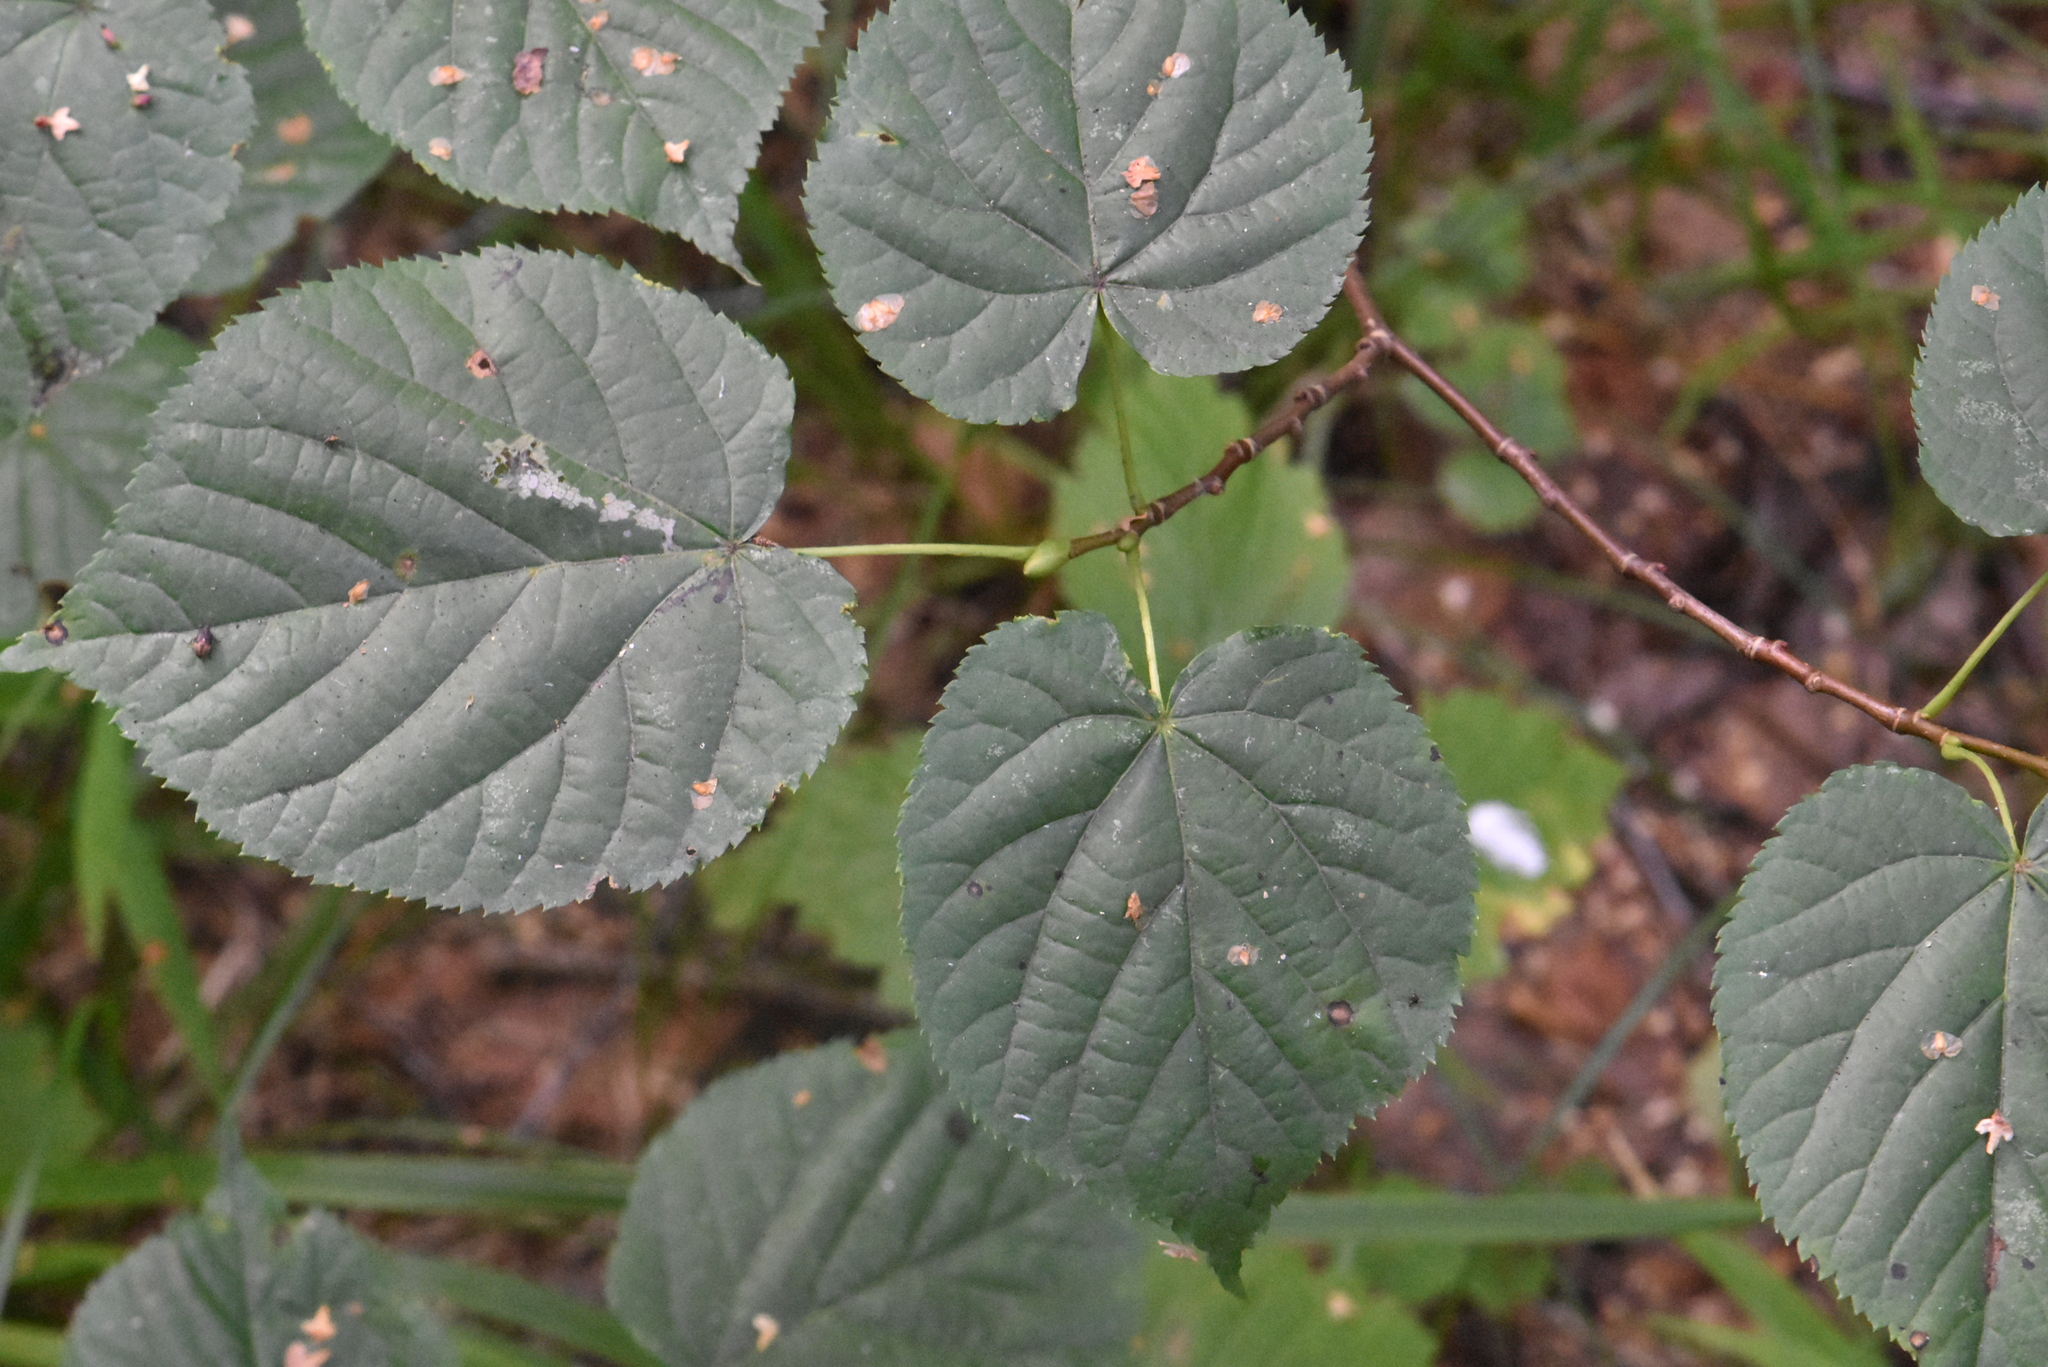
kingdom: Plantae
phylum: Tracheophyta
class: Magnoliopsida
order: Malvales
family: Malvaceae
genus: Tilia
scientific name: Tilia cordata
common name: Small-leaved lime
